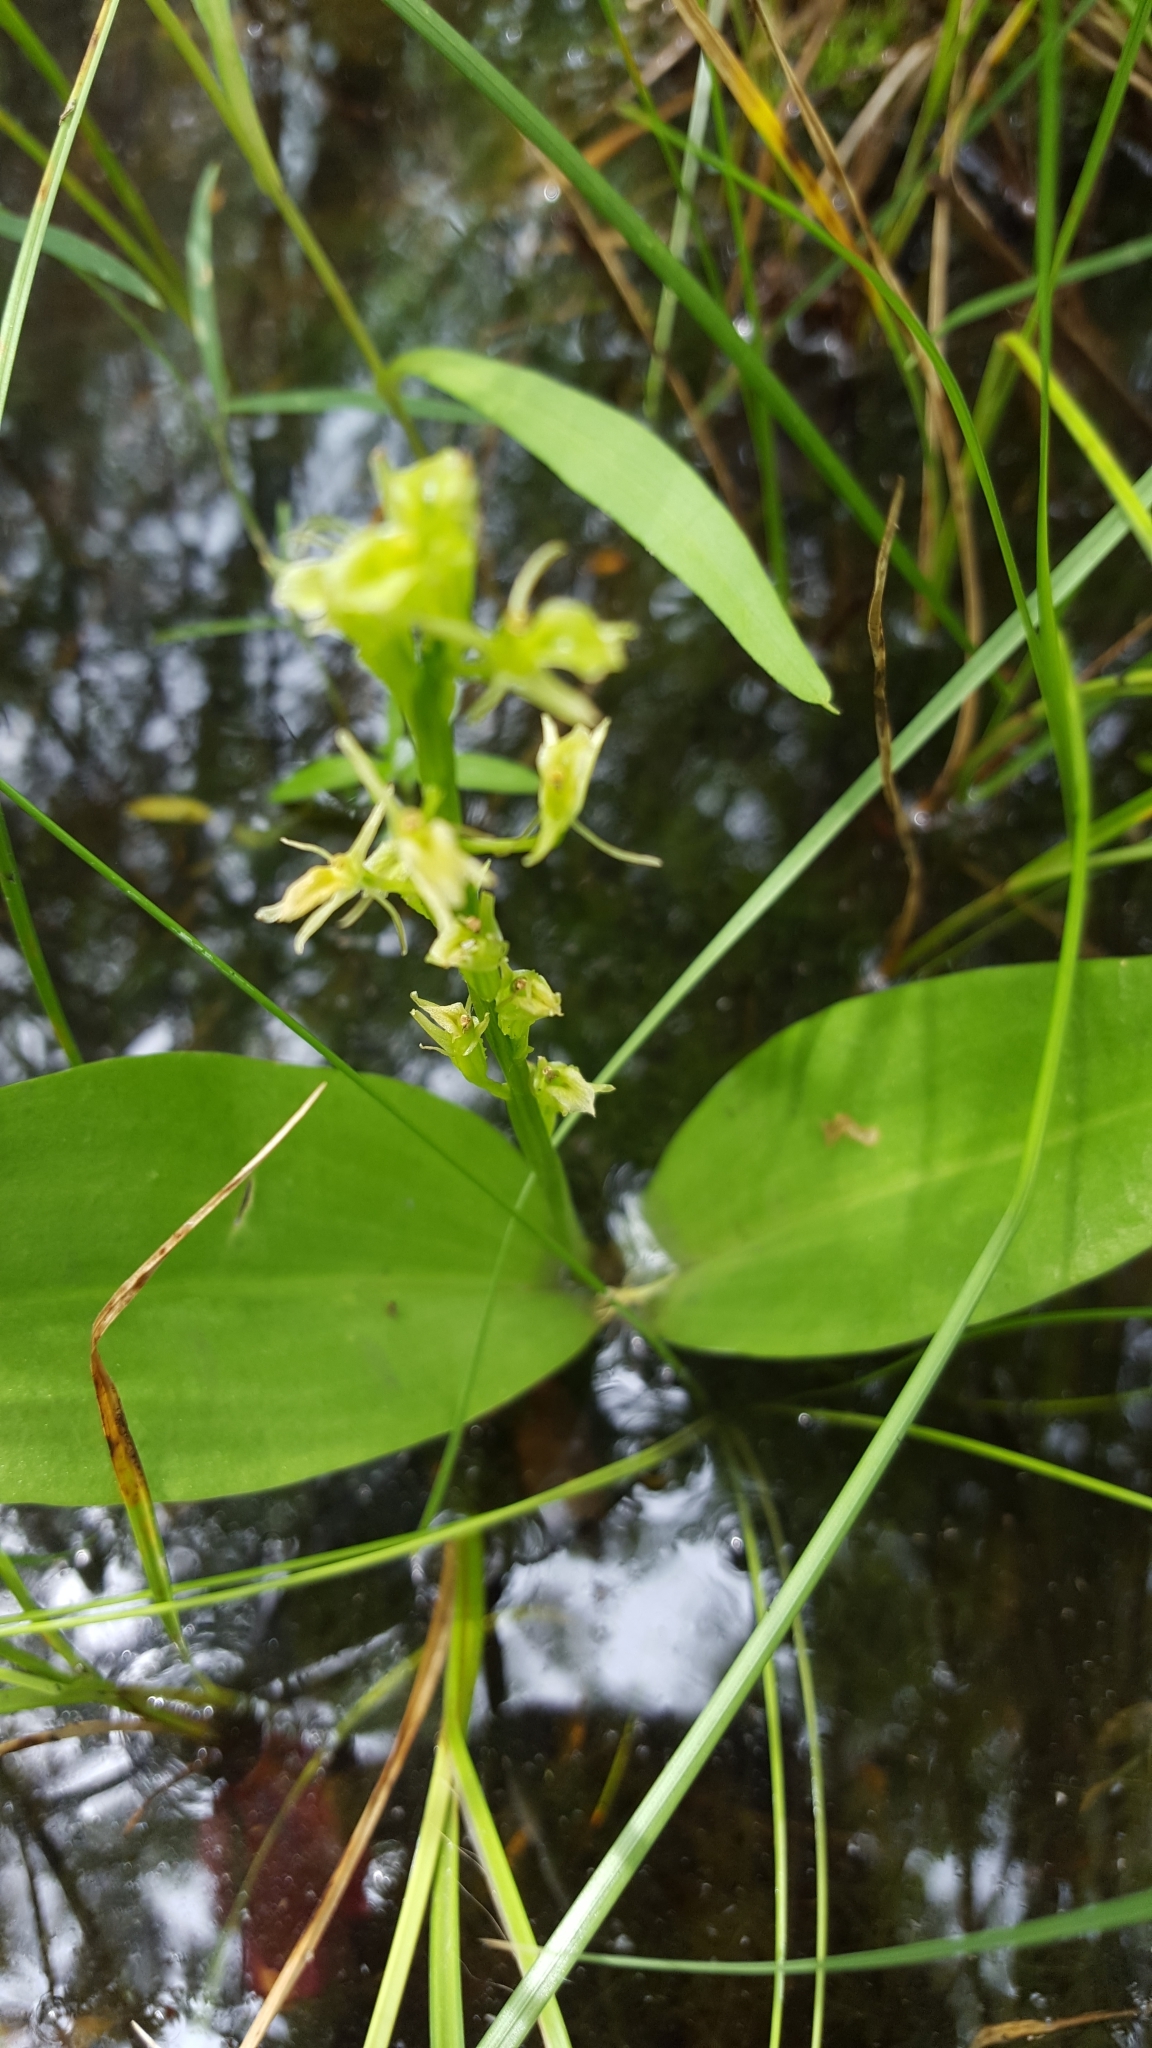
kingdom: Animalia
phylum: Arthropoda
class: Insecta
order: Coleoptera
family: Curculionidae
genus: Liparis
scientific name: Liparis loeselii
